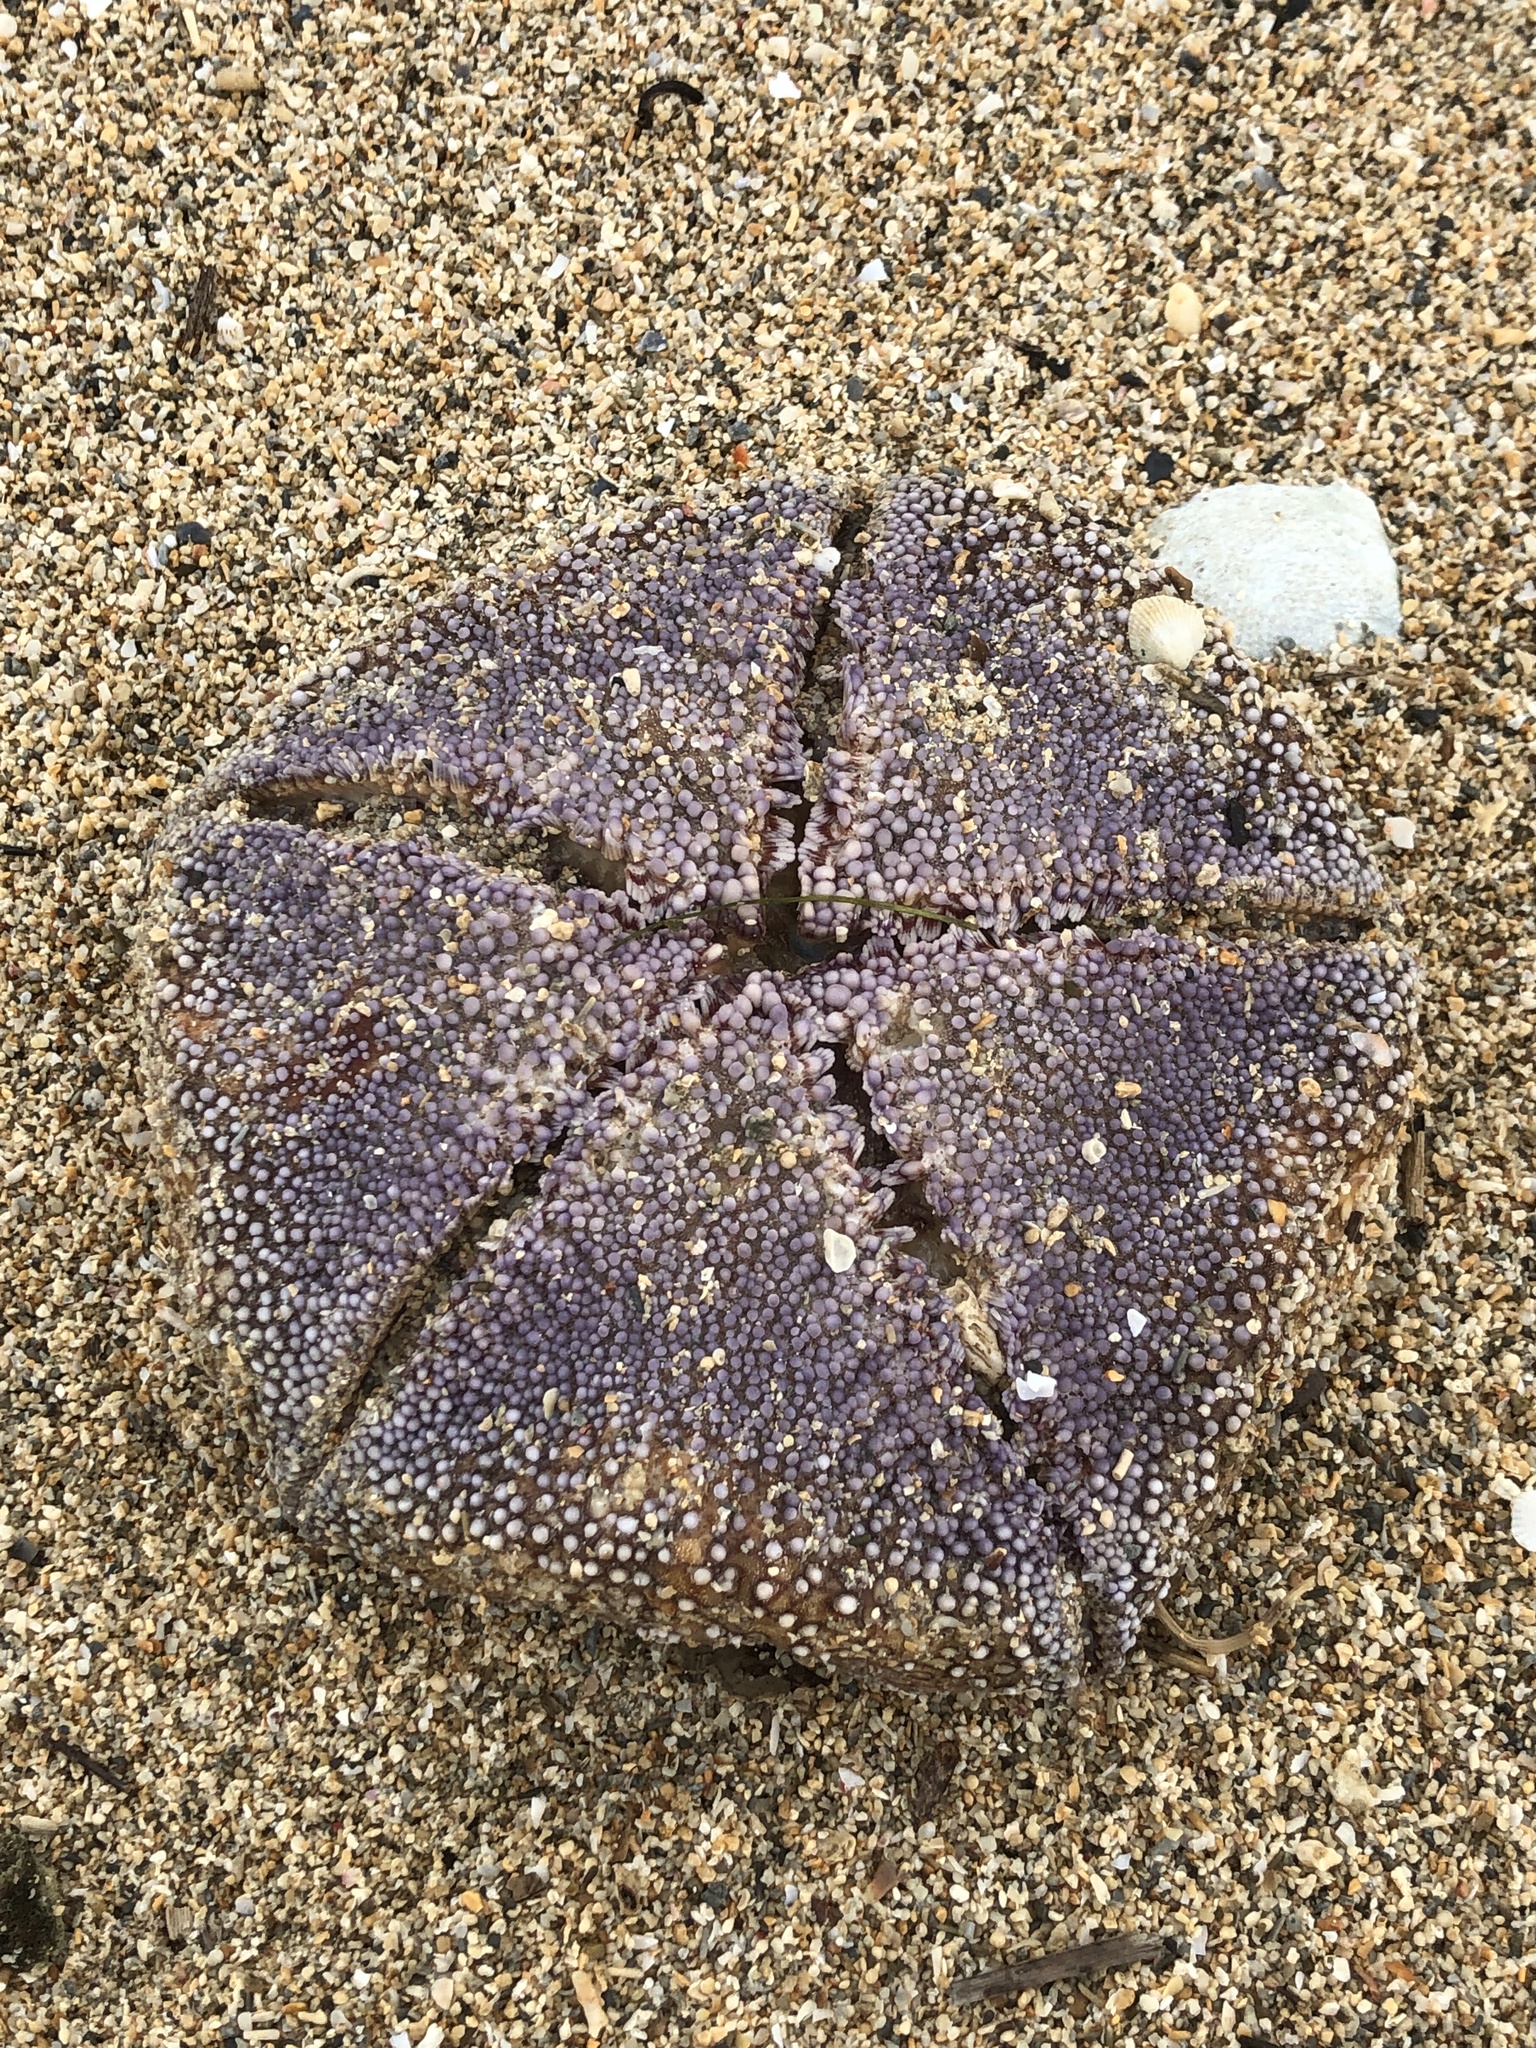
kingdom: Animalia
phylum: Echinodermata
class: Asteroidea
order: Valvatida
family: Oreasteridae
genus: Culcita
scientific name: Culcita novaeguineae
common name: Cushion star
